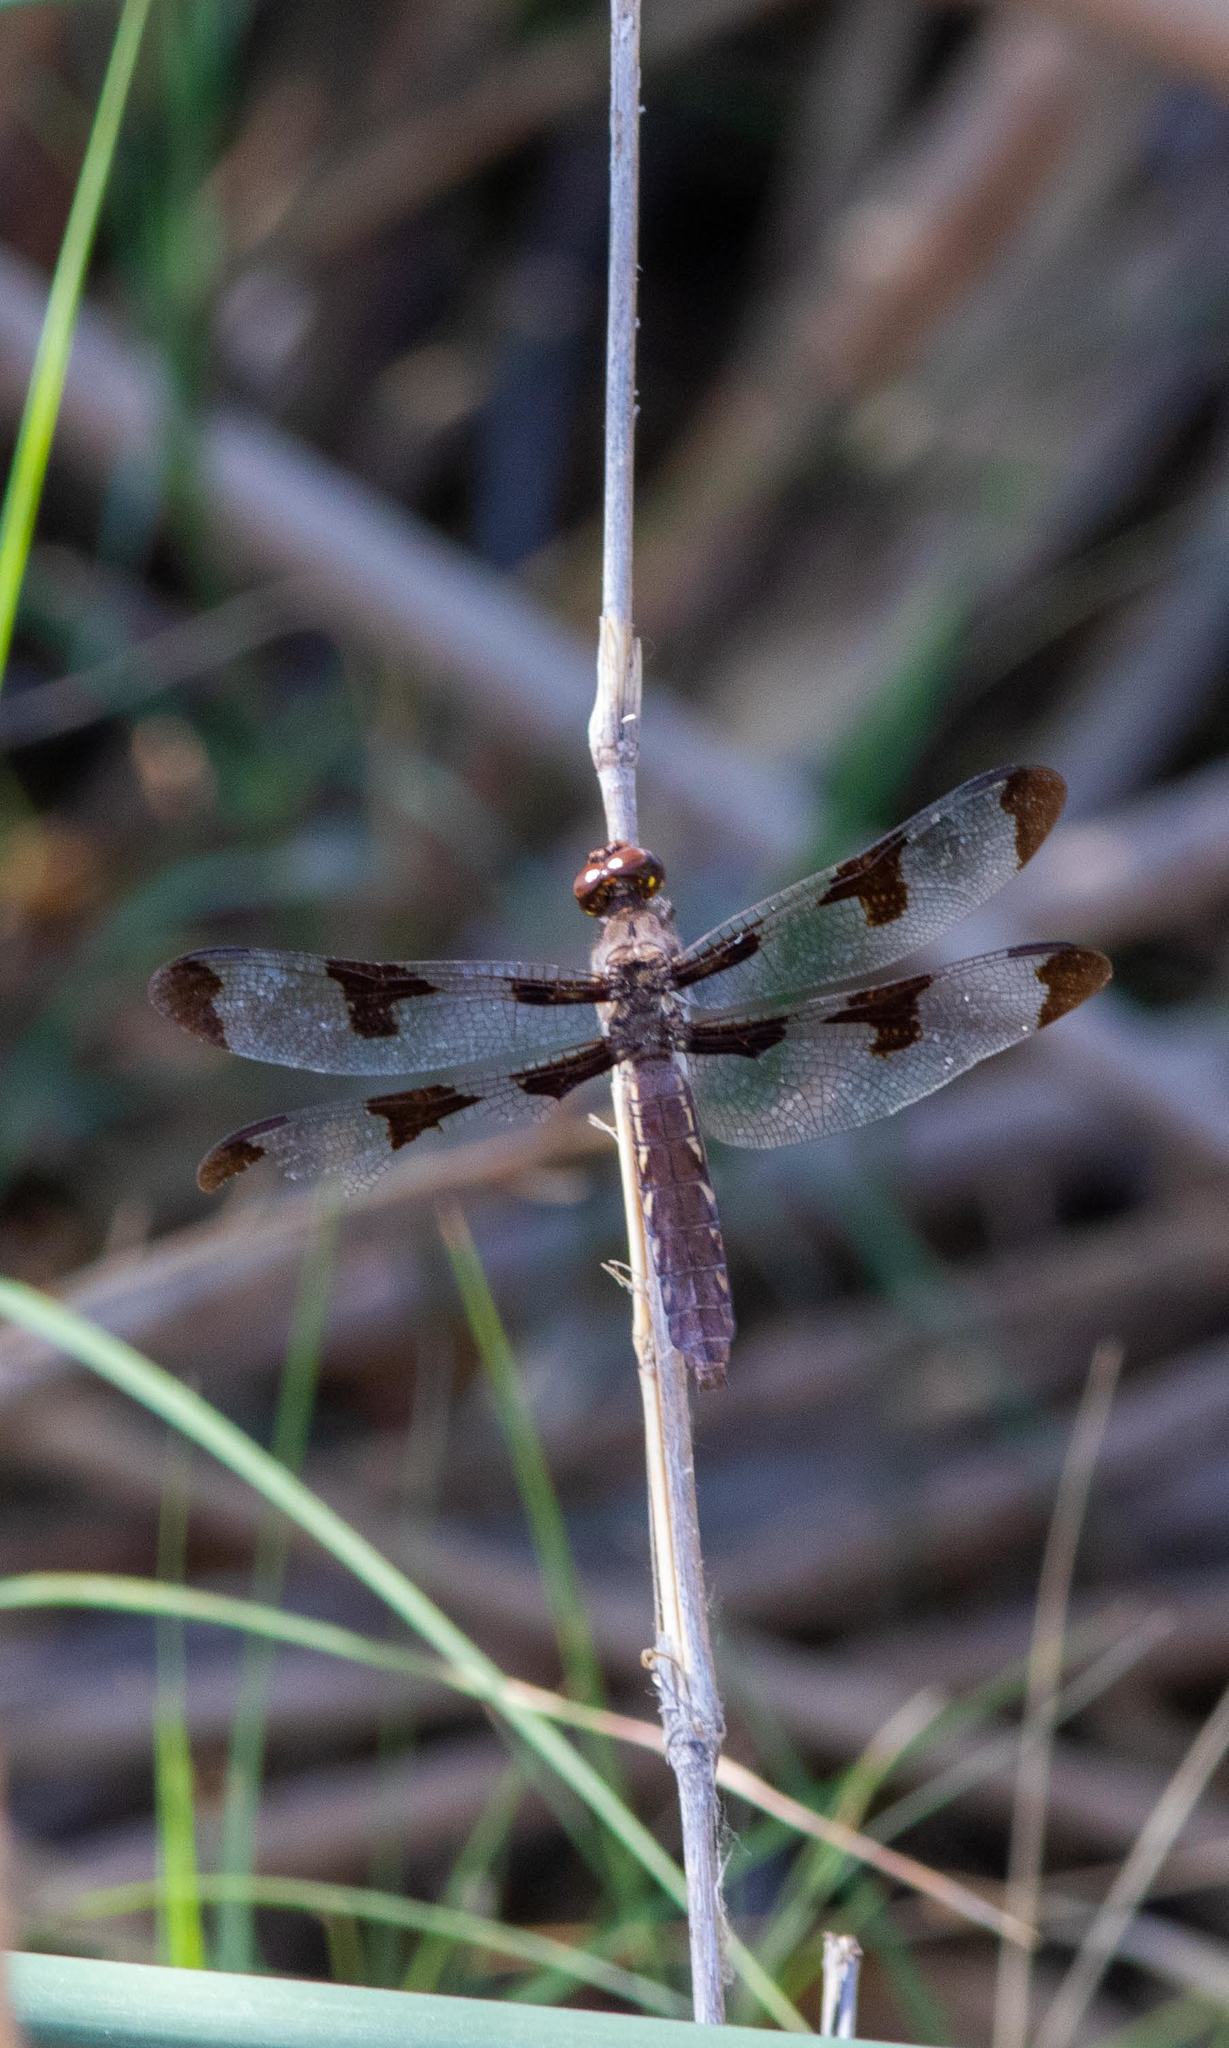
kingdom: Animalia
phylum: Arthropoda
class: Insecta
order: Odonata
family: Libellulidae
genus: Plathemis
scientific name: Plathemis lydia
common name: Common whitetail
